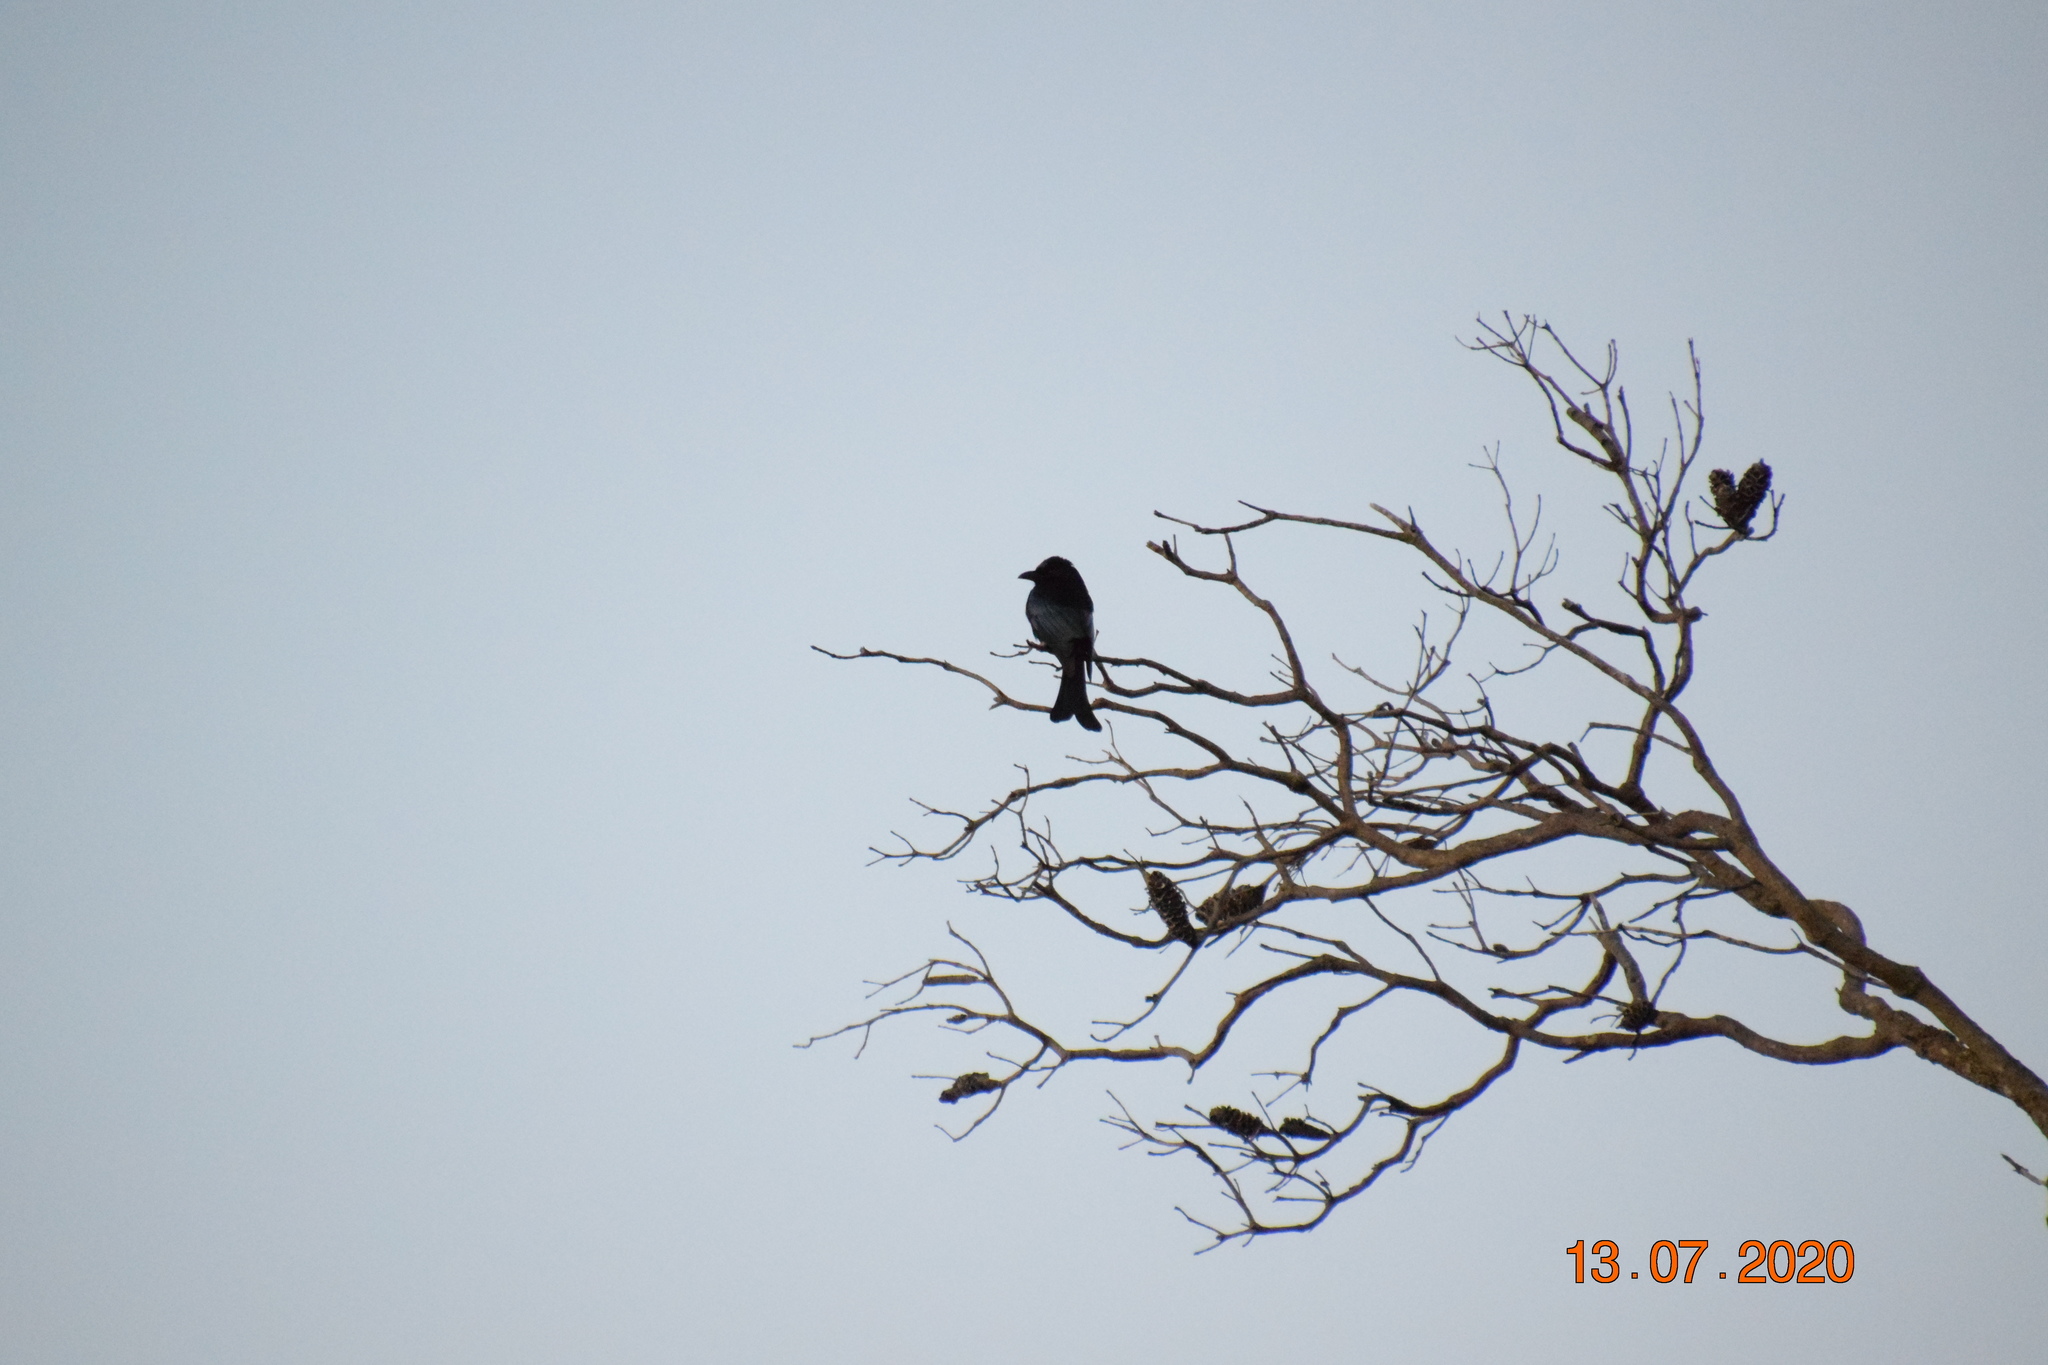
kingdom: Animalia
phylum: Chordata
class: Aves
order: Passeriformes
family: Dicruridae
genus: Dicrurus
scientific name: Dicrurus bracteatus
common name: Spangled drongo
